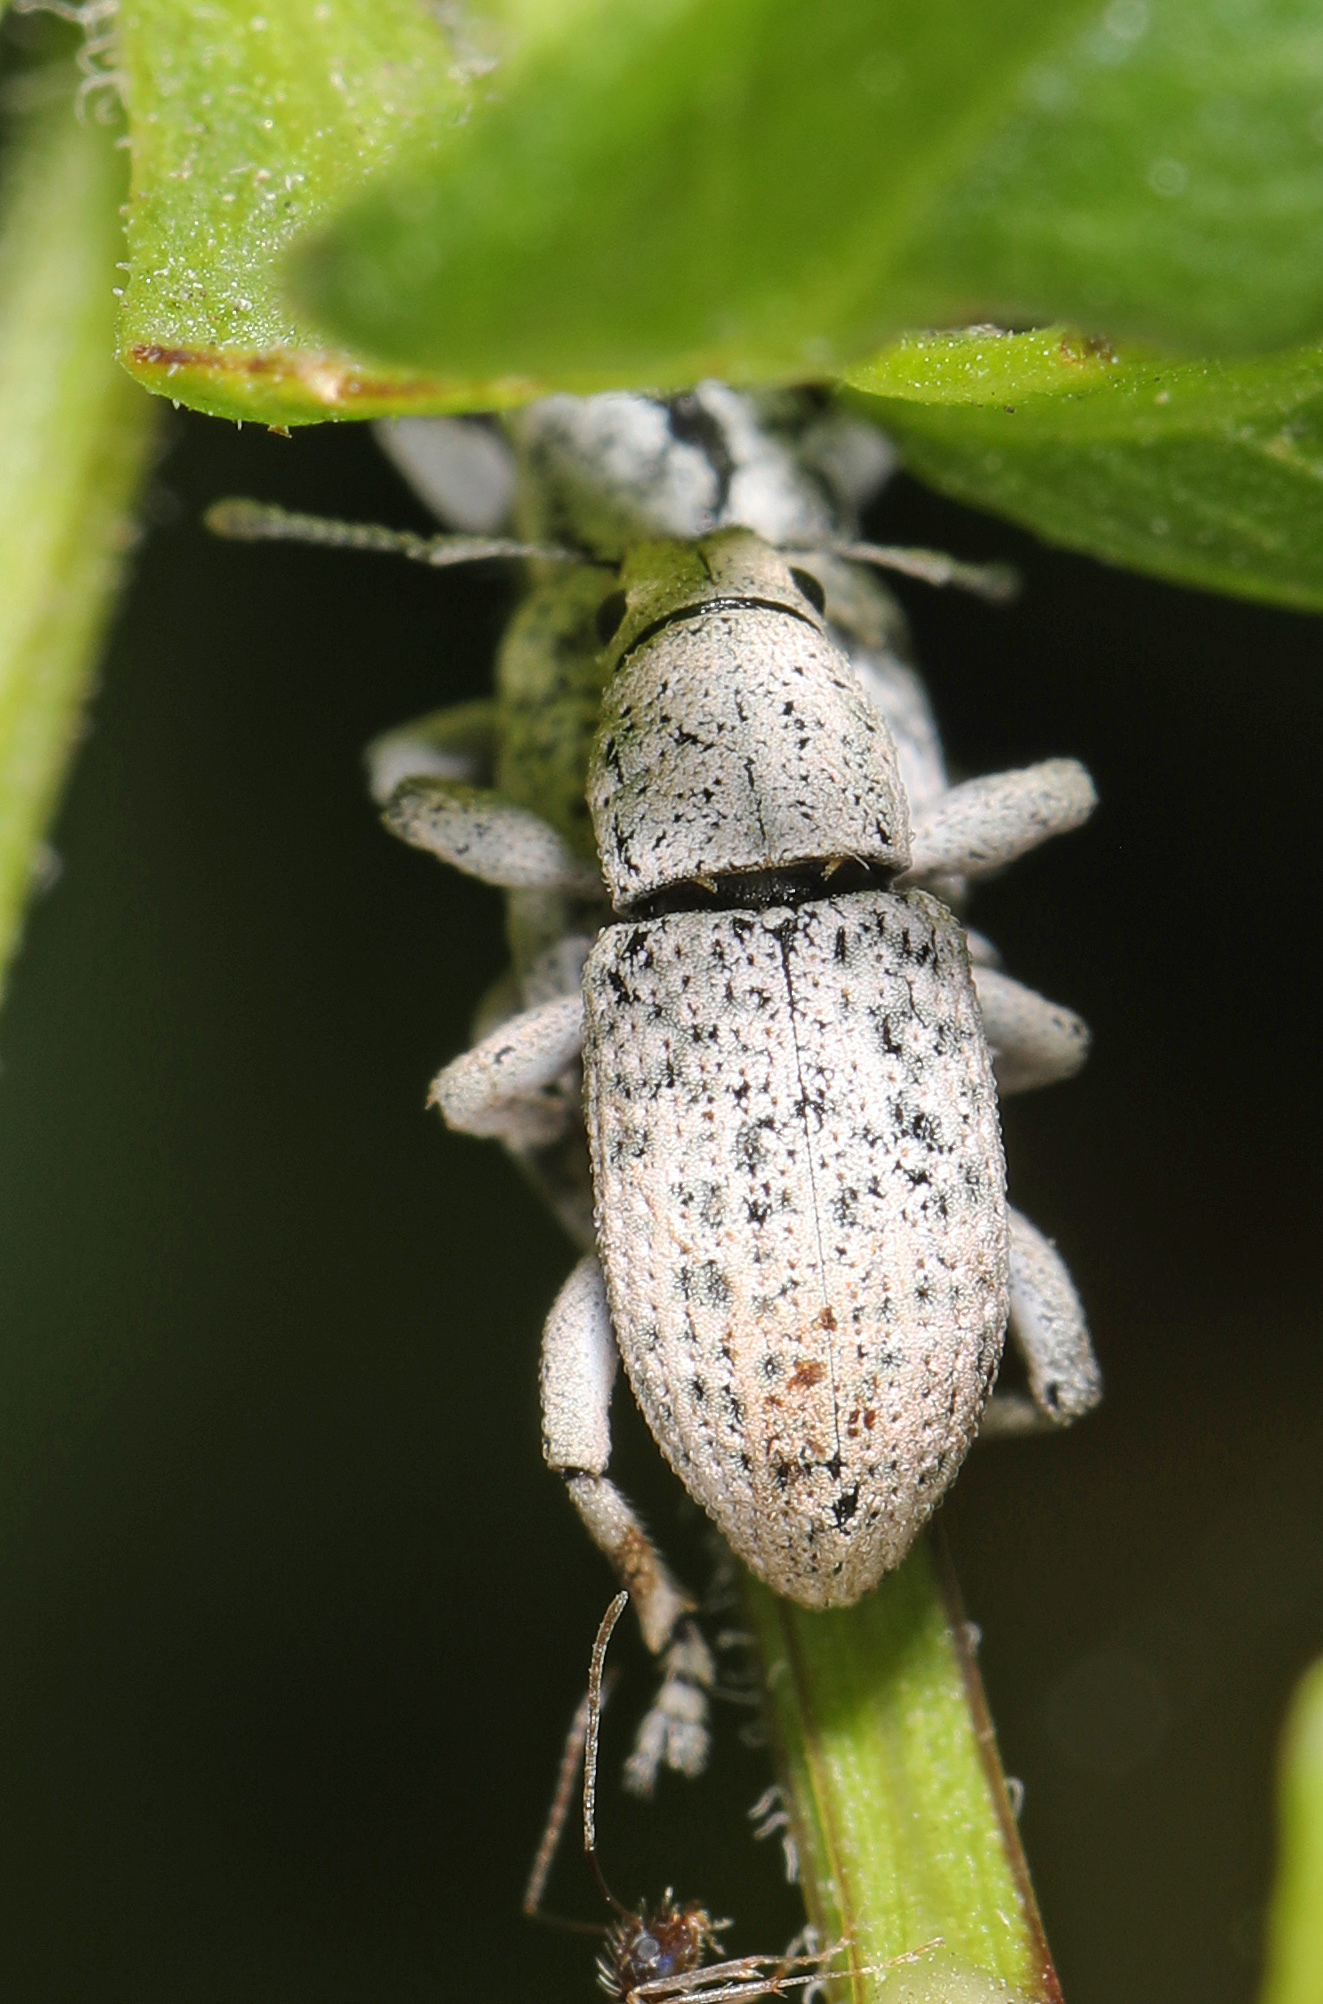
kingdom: Animalia
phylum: Arthropoda
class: Insecta
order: Coleoptera
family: Curculionidae
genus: Artipus
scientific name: Artipus floridanus
